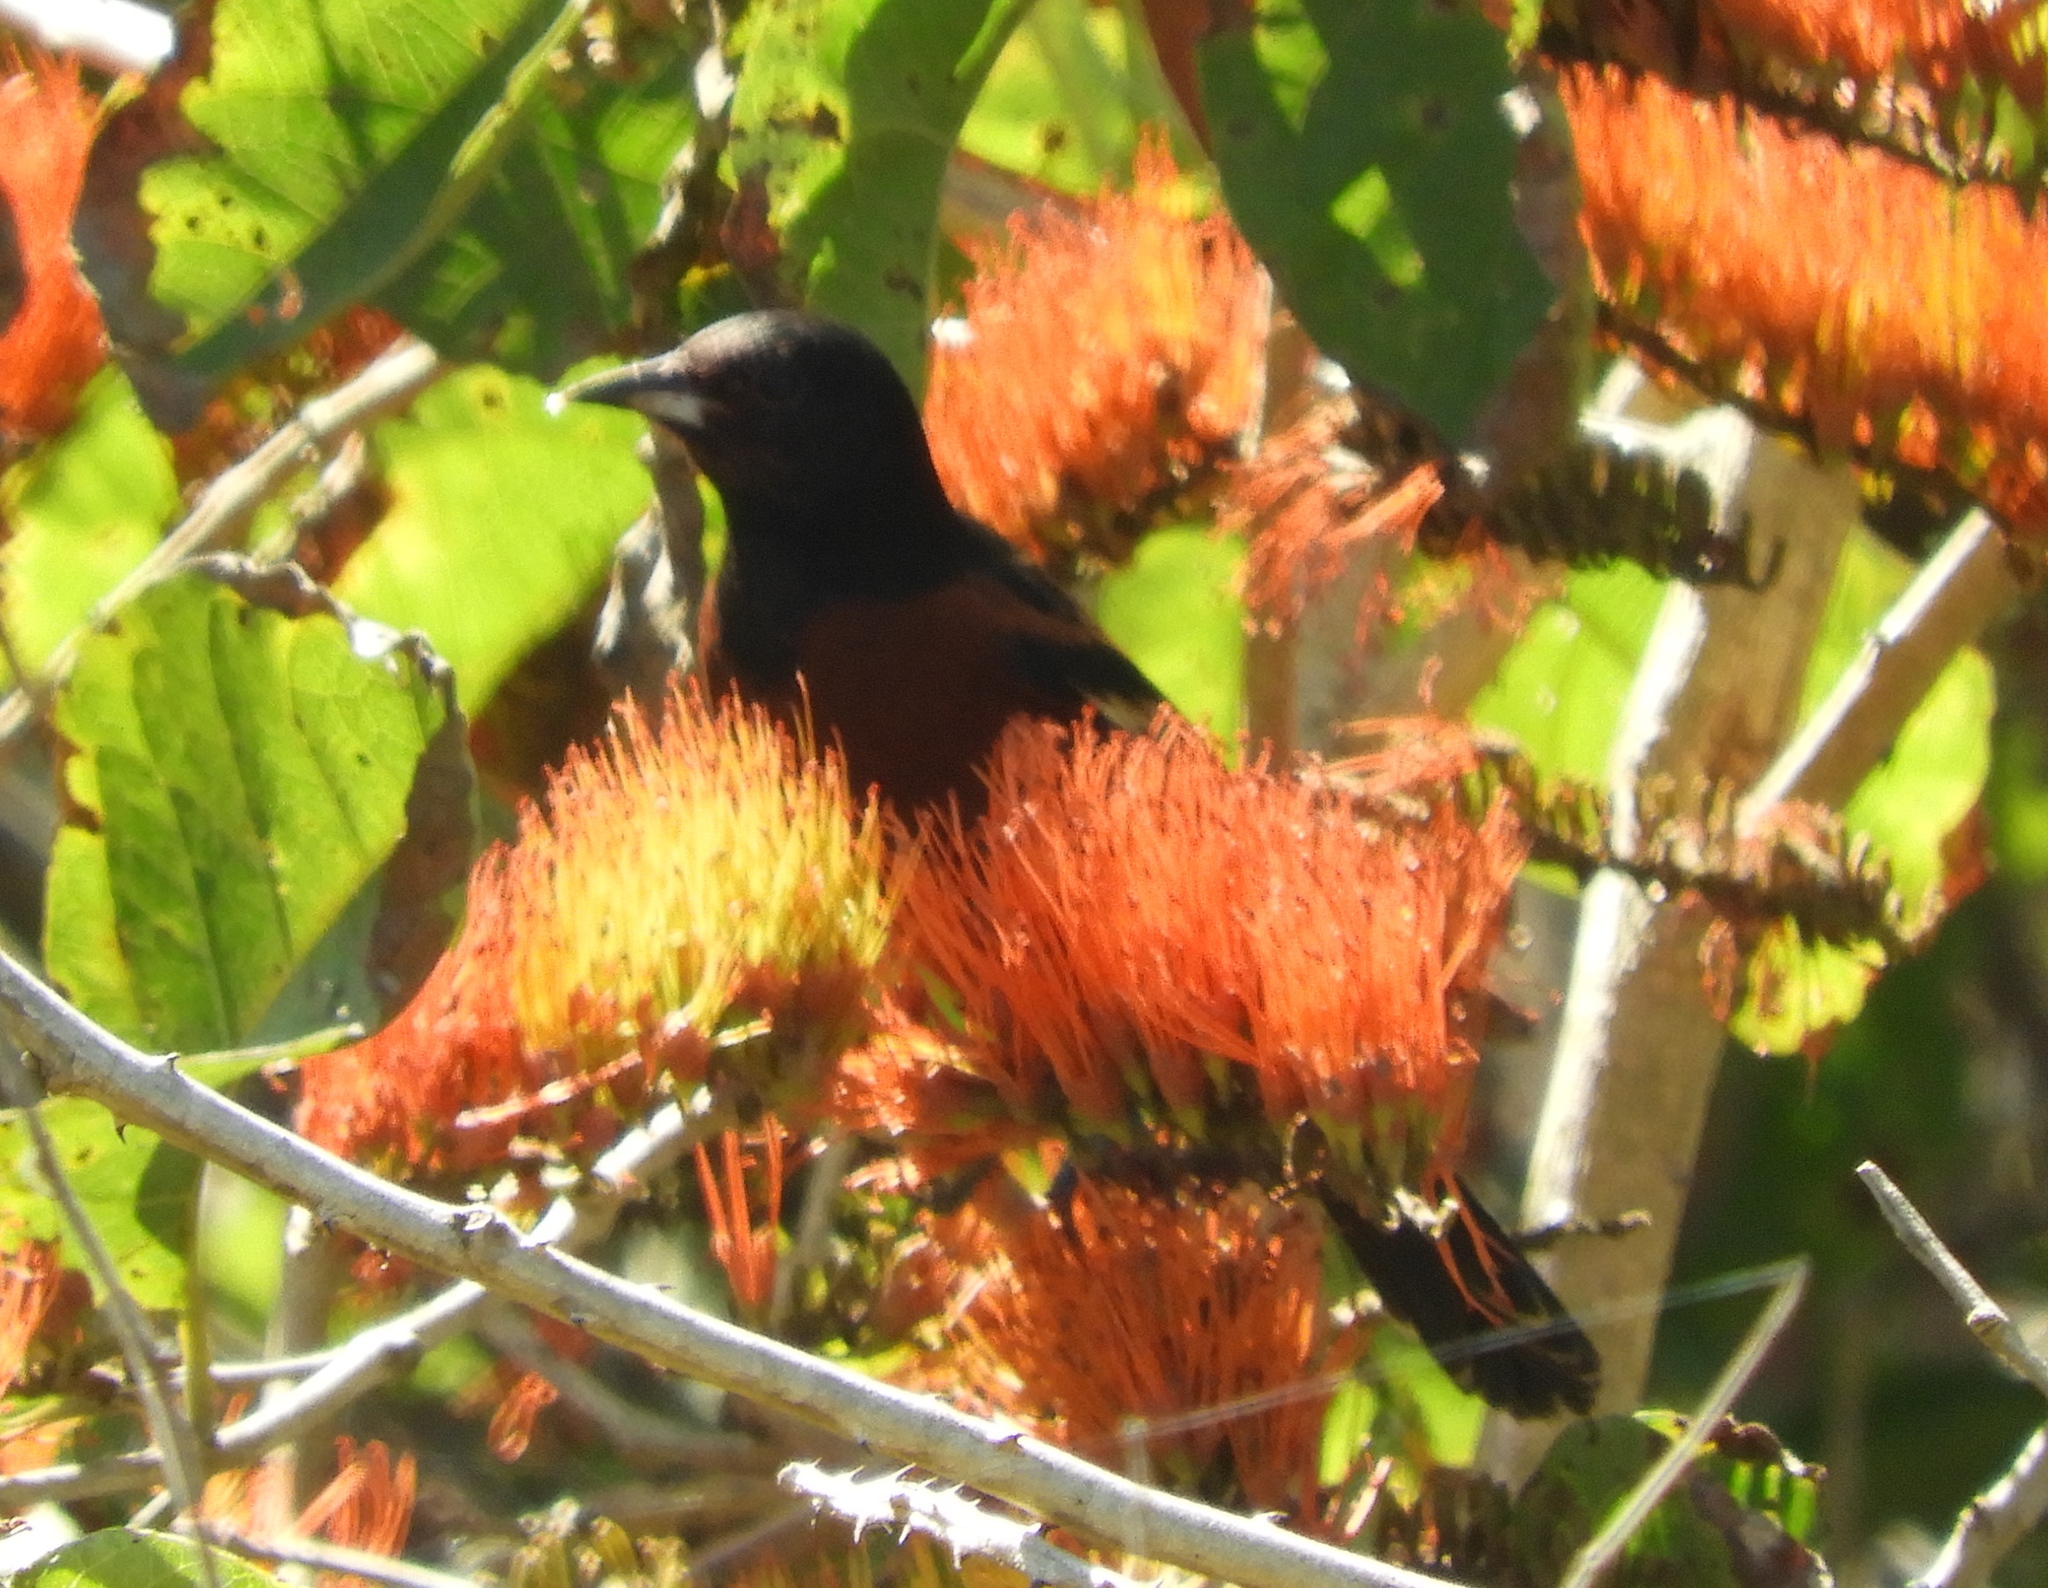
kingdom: Animalia
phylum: Chordata
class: Aves
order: Passeriformes
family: Icteridae
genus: Icterus
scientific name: Icterus spurius
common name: Orchard oriole
